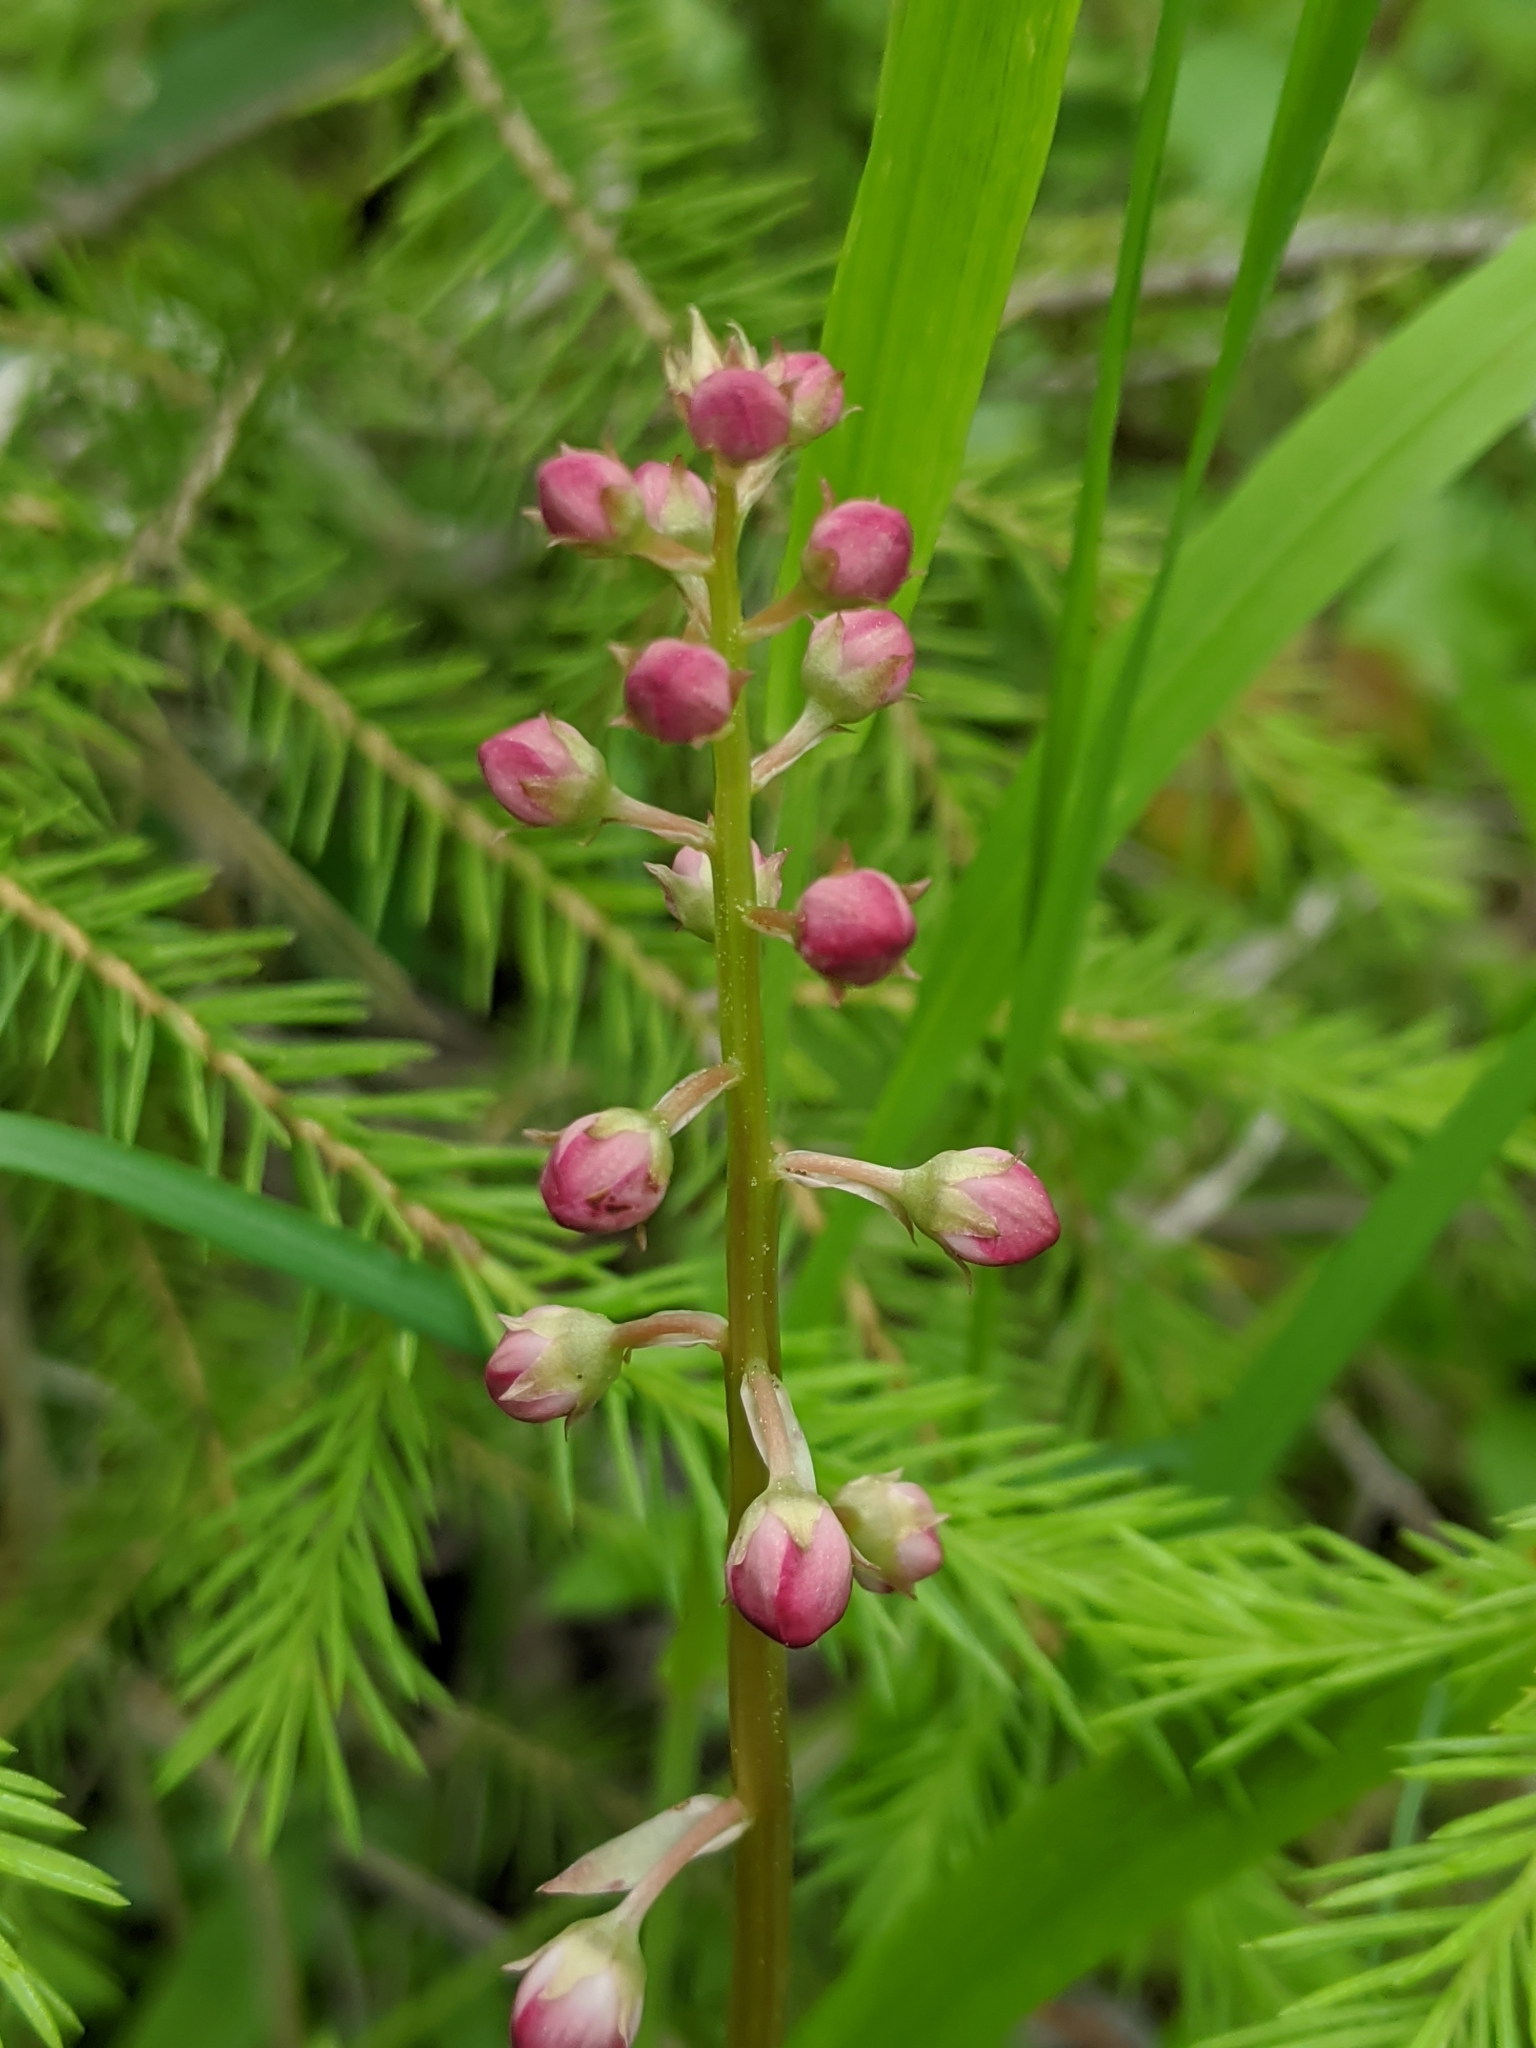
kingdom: Plantae
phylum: Tracheophyta
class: Magnoliopsida
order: Ericales
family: Ericaceae
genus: Pyrola
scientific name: Pyrola asarifolia
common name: Bog wintergreen
